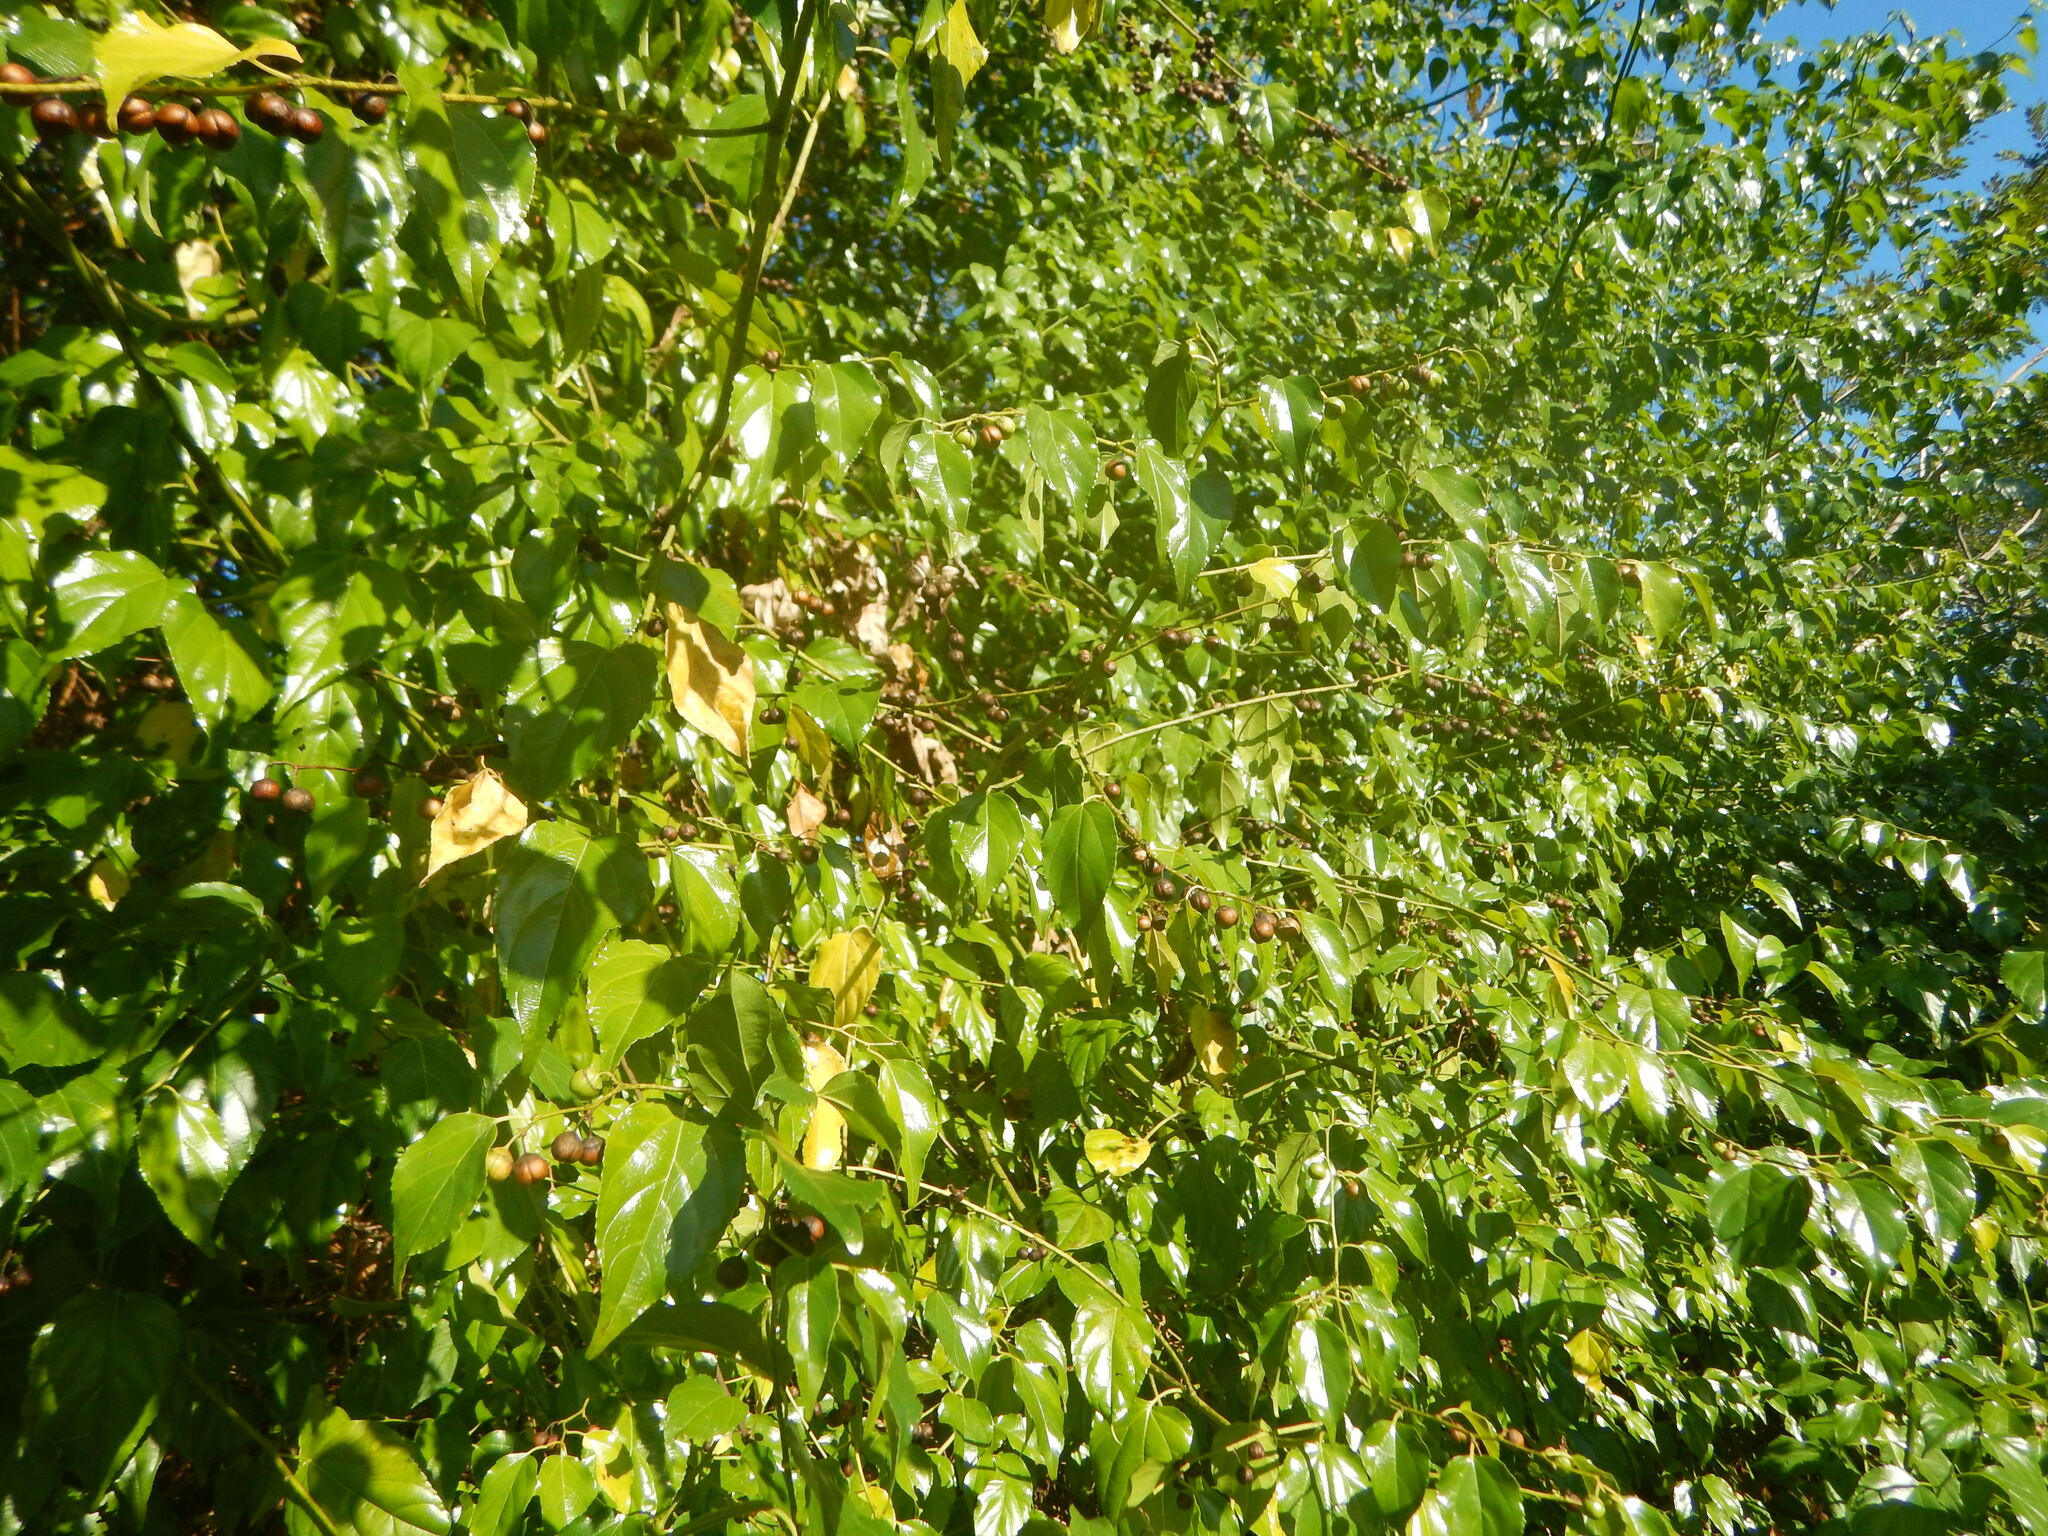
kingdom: Plantae
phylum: Tracheophyta
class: Magnoliopsida
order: Rosales
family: Rhamnaceae
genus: Colubrina
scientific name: Colubrina asiatica
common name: Asian nakedwood
